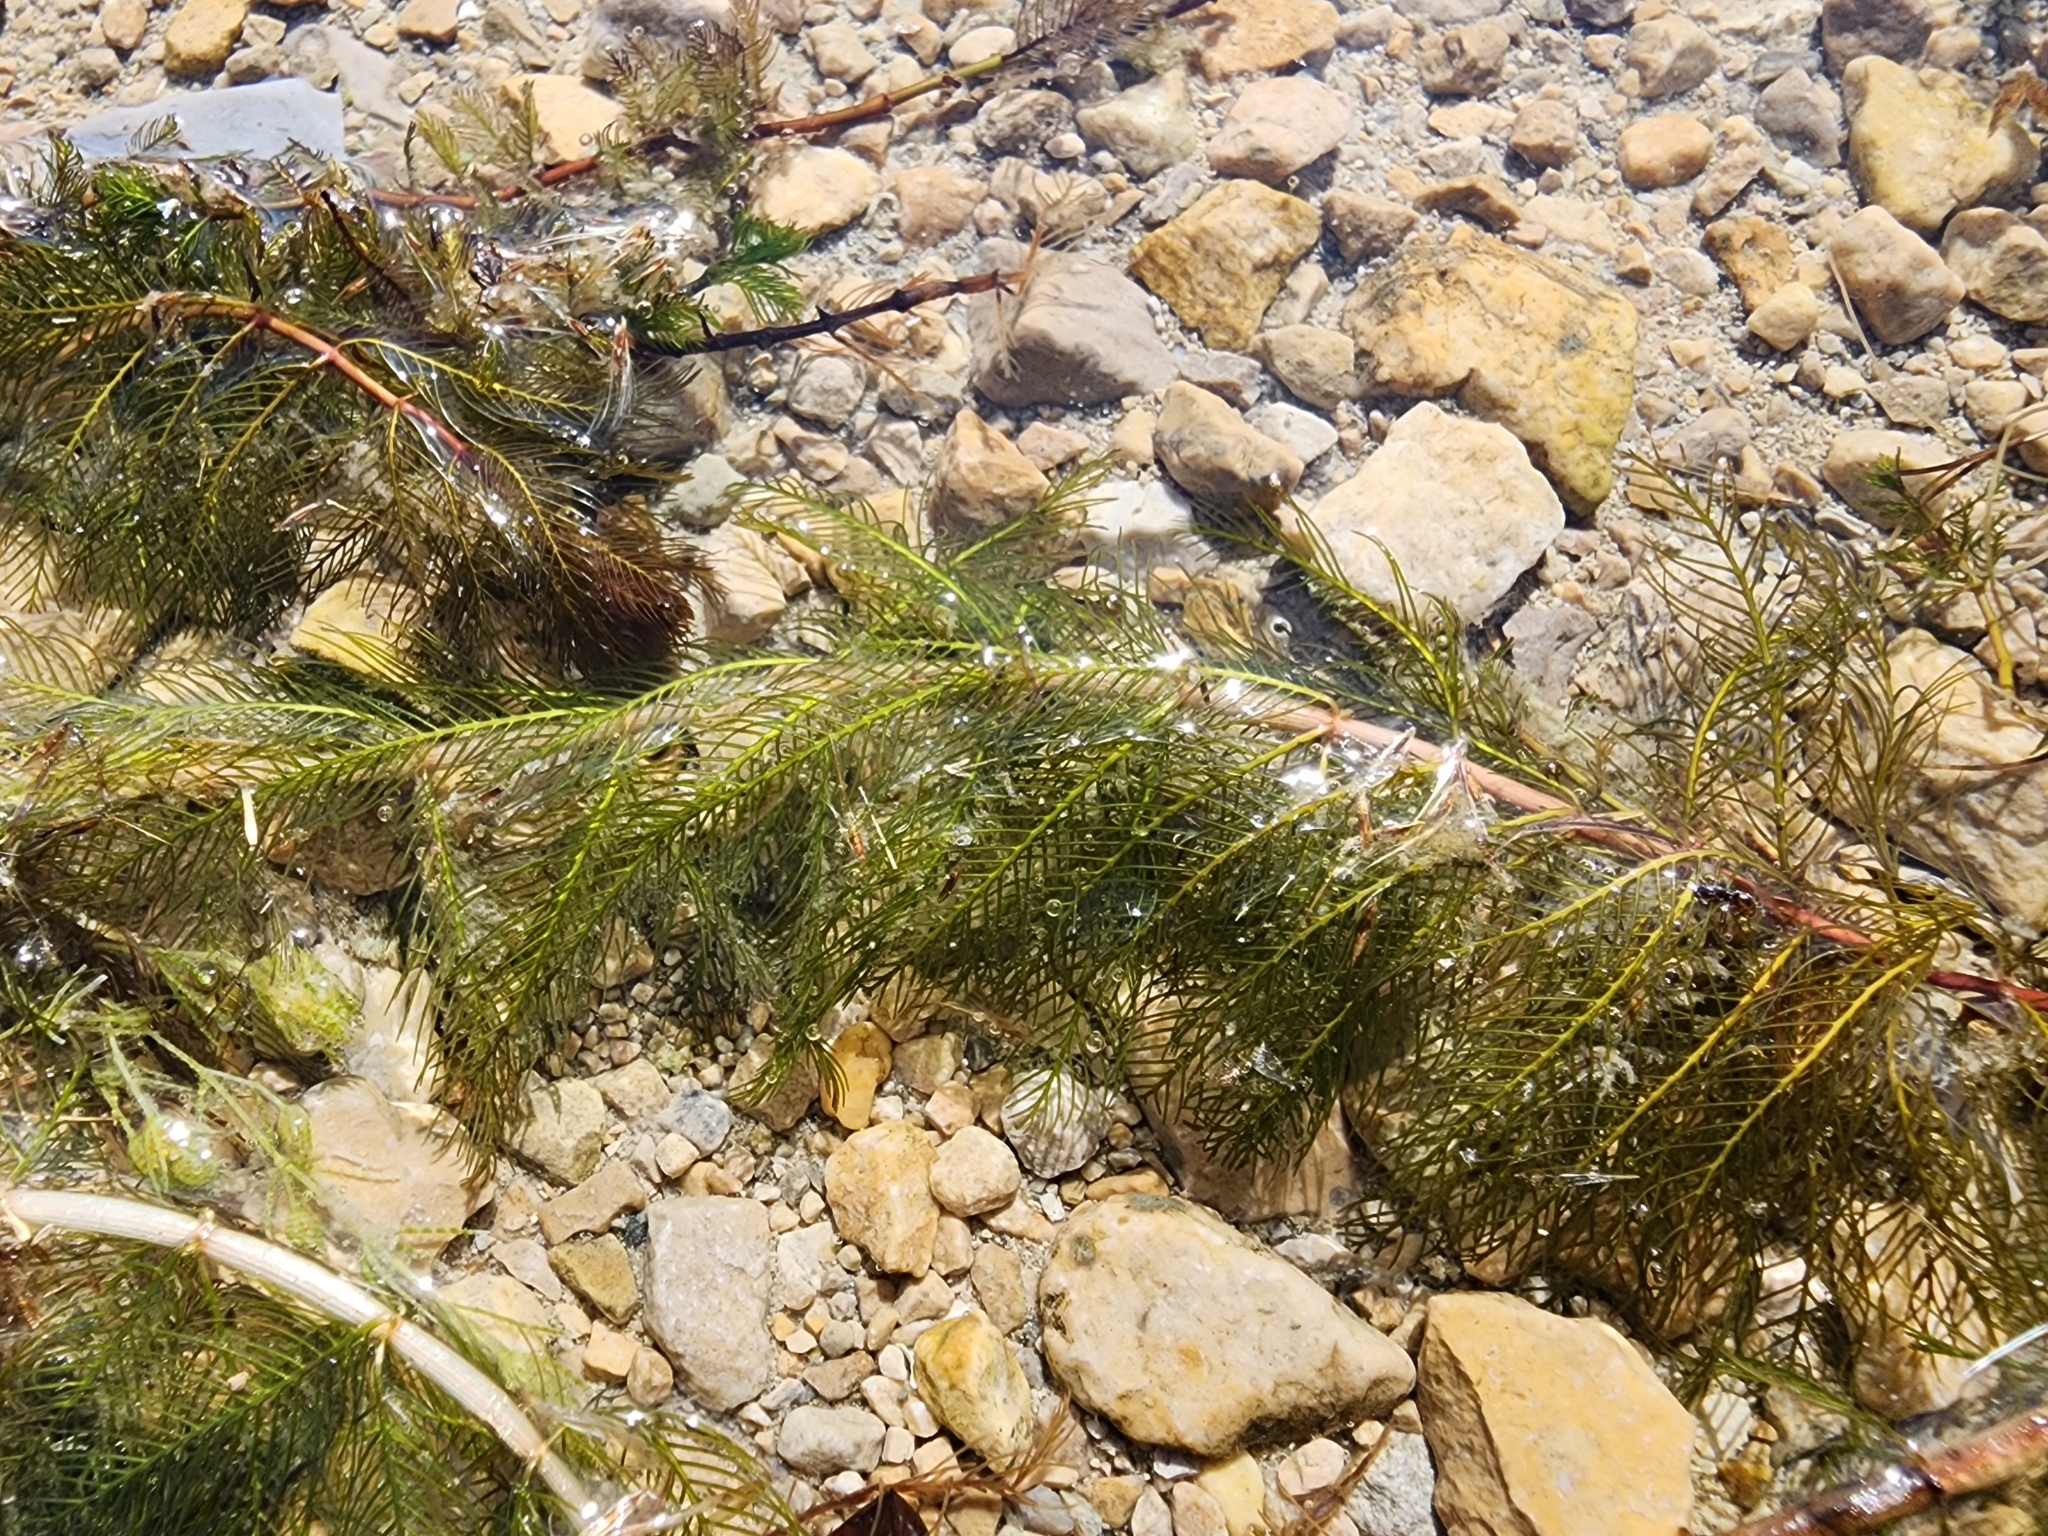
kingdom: Plantae
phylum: Tracheophyta
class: Magnoliopsida
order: Saxifragales
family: Haloragaceae
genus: Myriophyllum
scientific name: Myriophyllum spicatum
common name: Spiked water-milfoil
